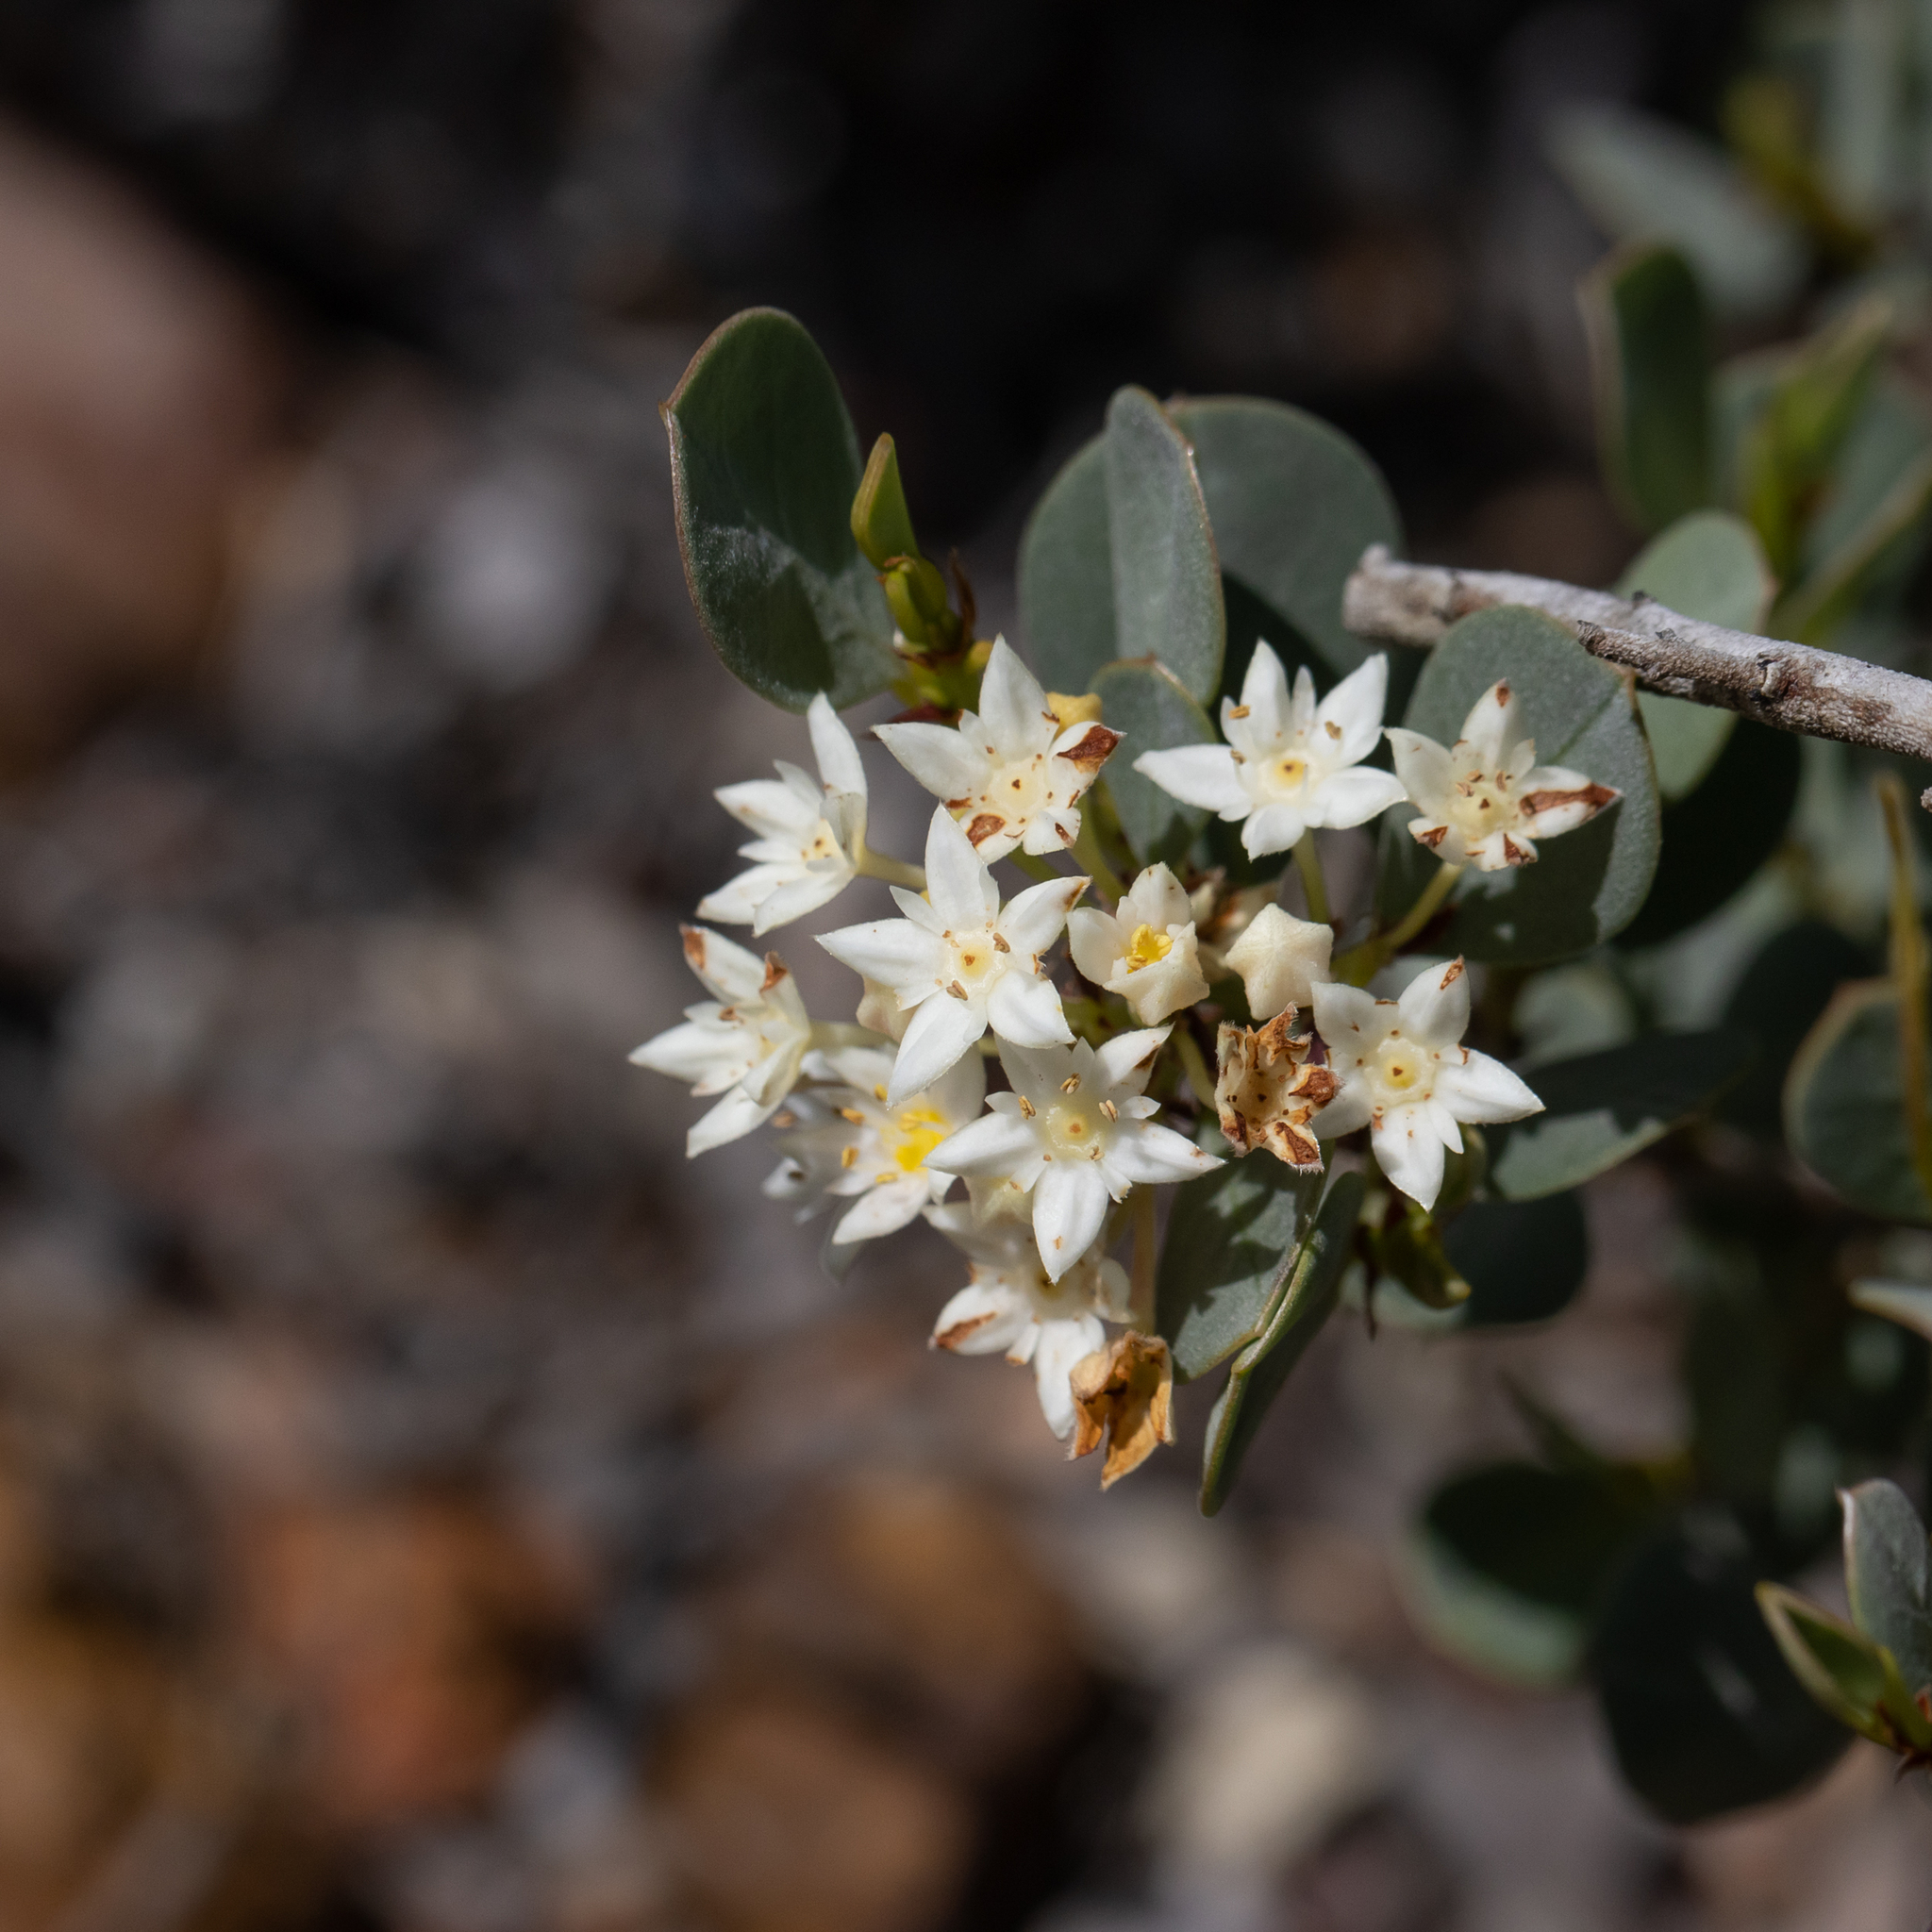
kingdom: Plantae
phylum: Tracheophyta
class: Magnoliopsida
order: Rosales
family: Rhamnaceae
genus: Pomaderris
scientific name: Pomaderris myrtilloides
